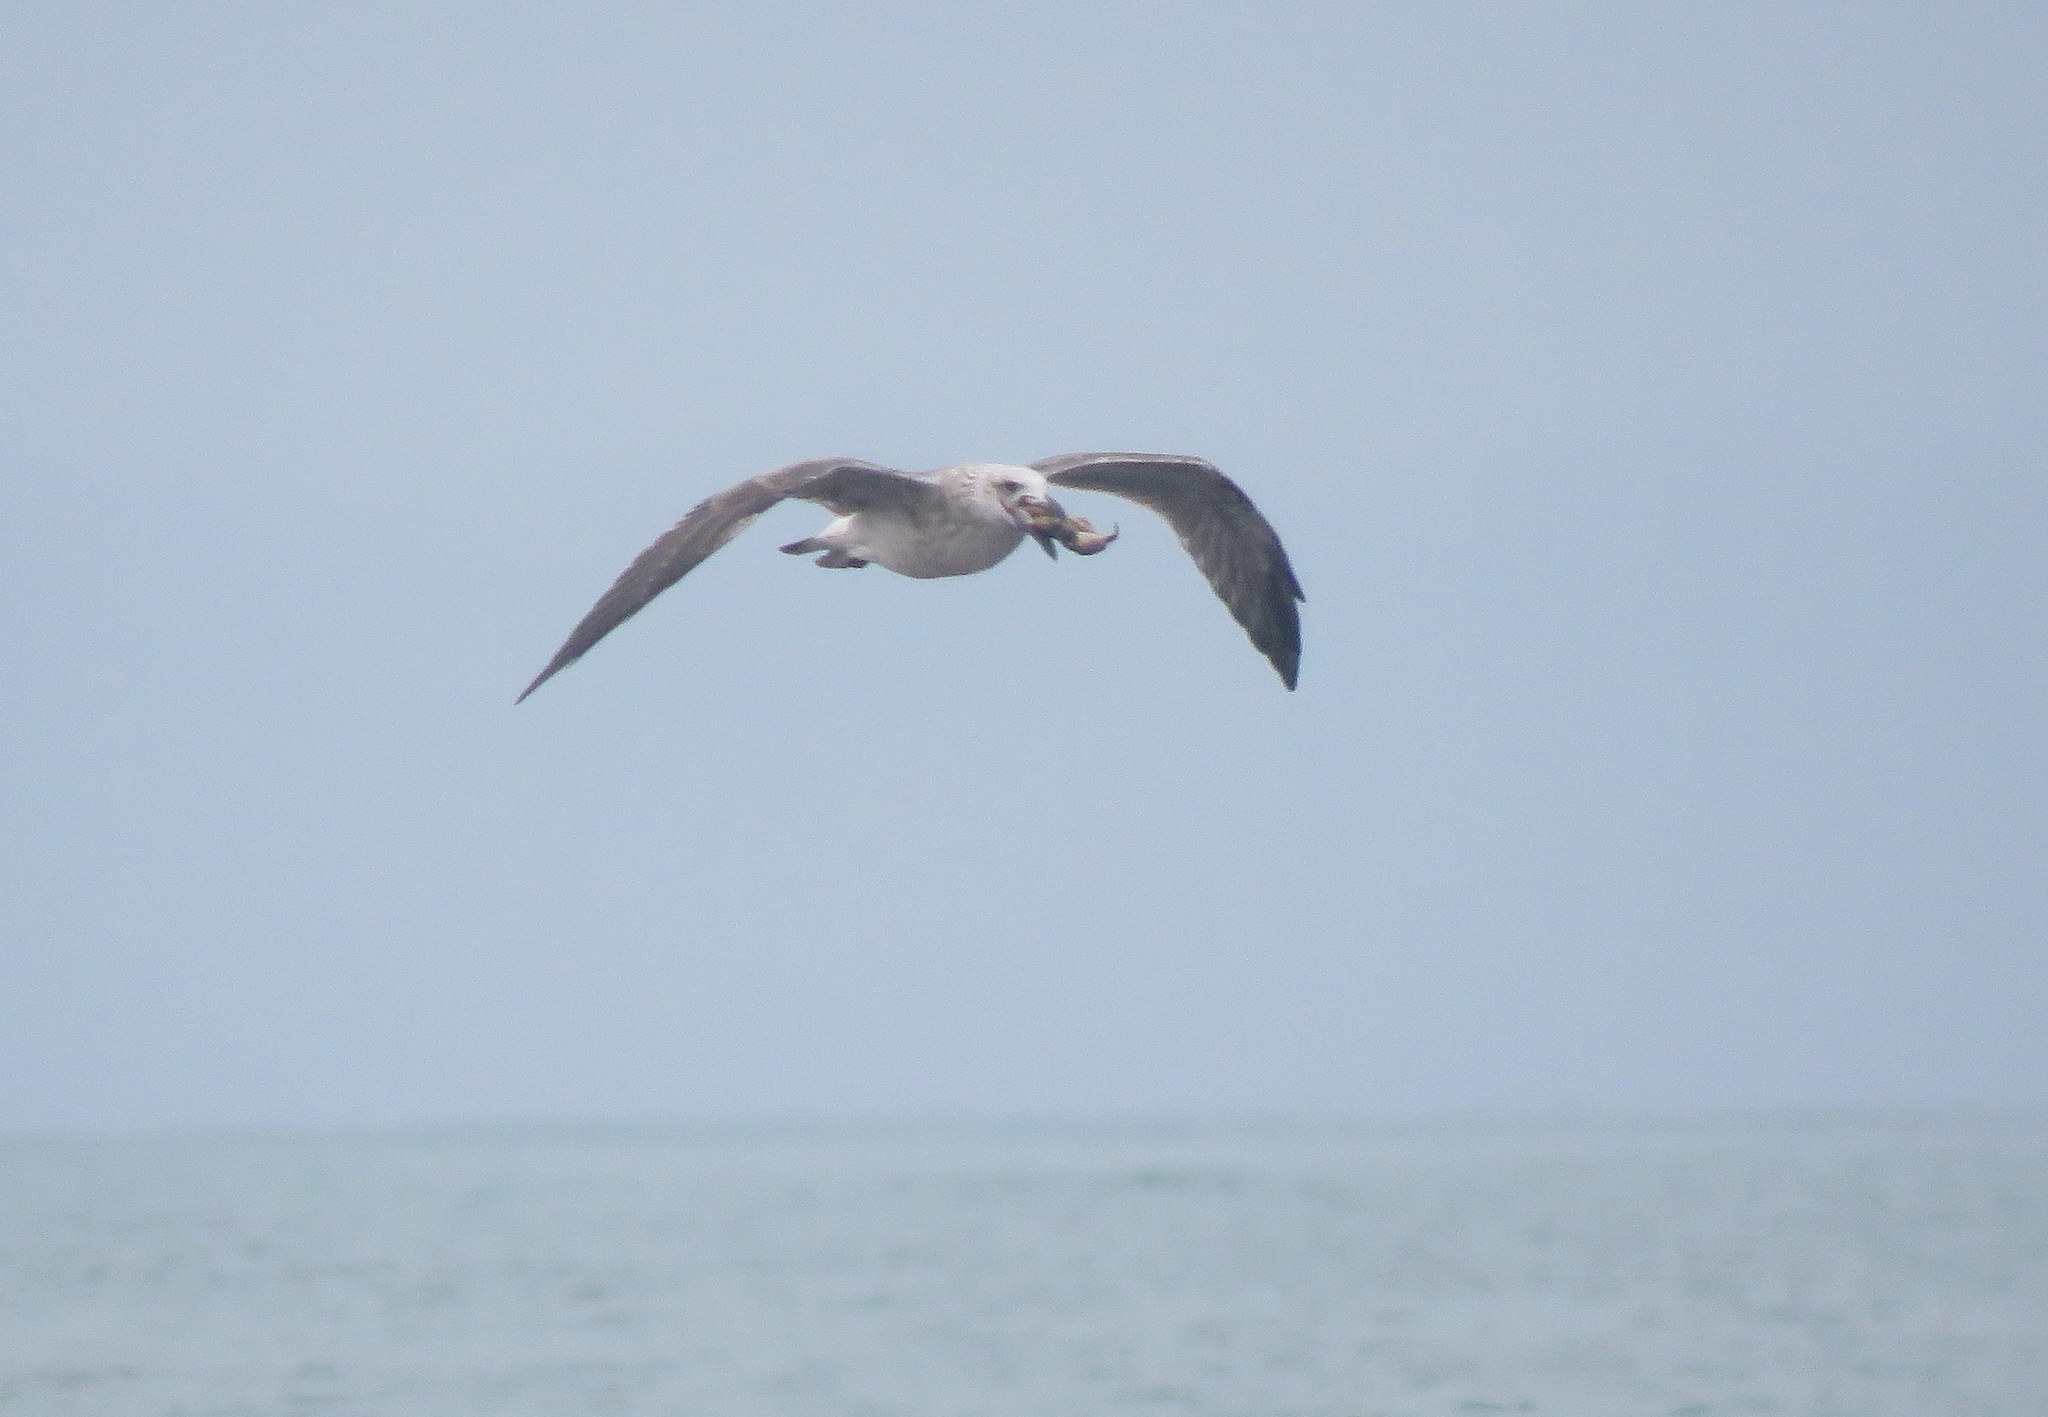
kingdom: Animalia
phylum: Chordata
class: Aves
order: Charadriiformes
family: Laridae
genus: Larus
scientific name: Larus dominicanus
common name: Kelp gull
